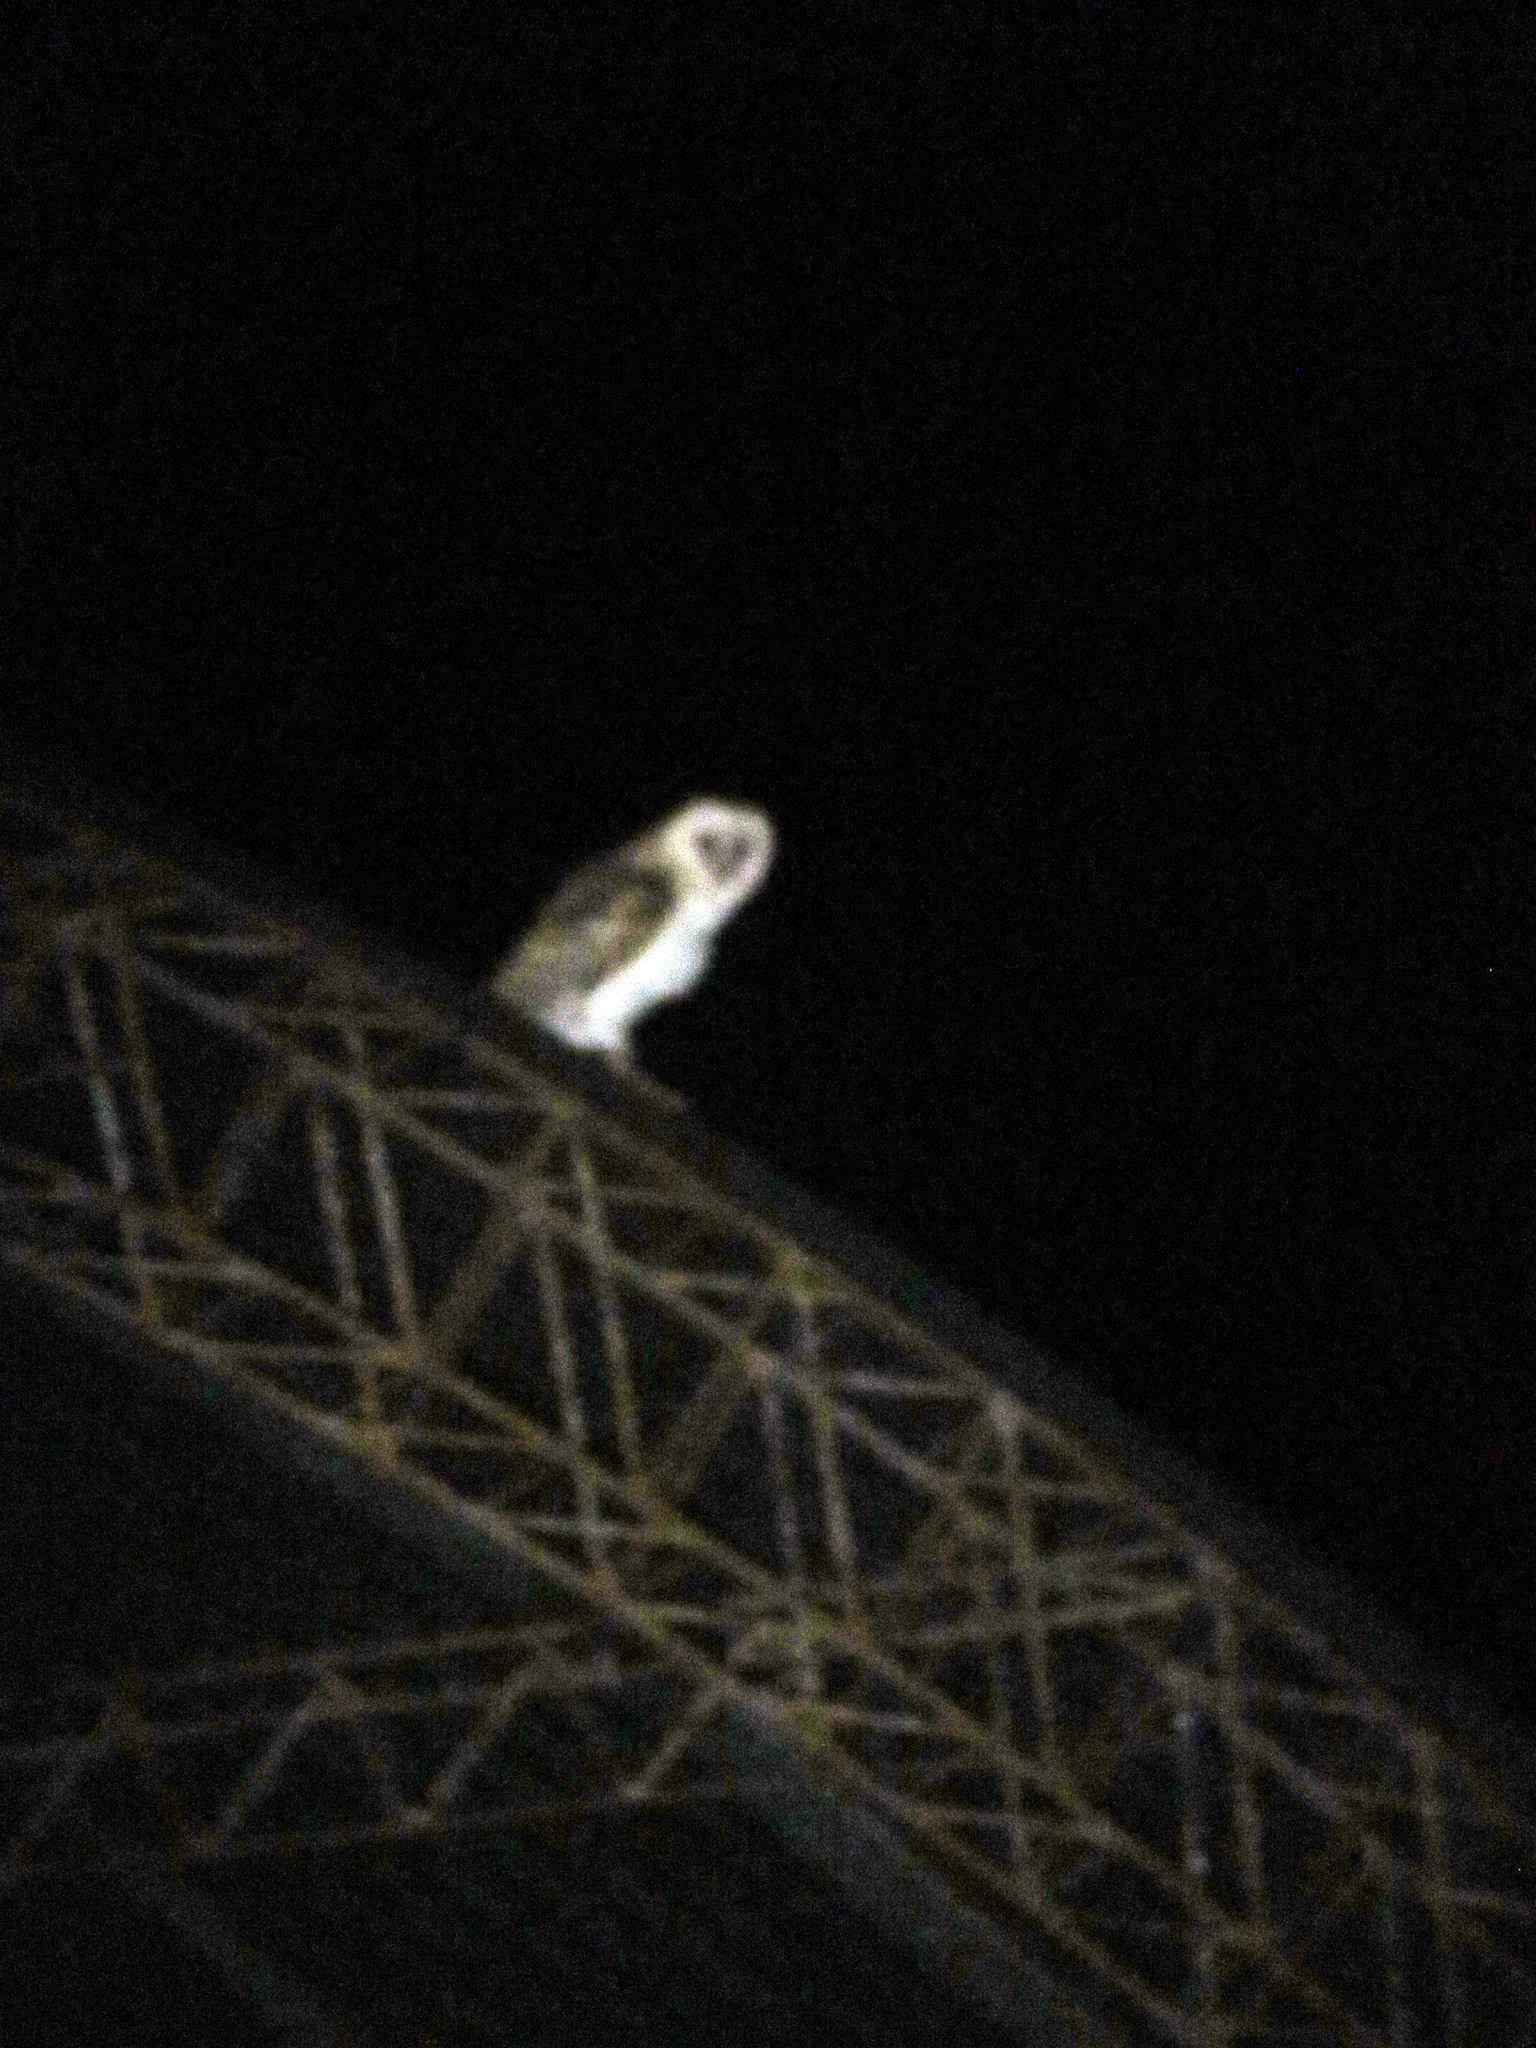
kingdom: Animalia
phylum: Chordata
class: Aves
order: Strigiformes
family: Tytonidae
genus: Tyto
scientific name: Tyto alba
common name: Barn owl
